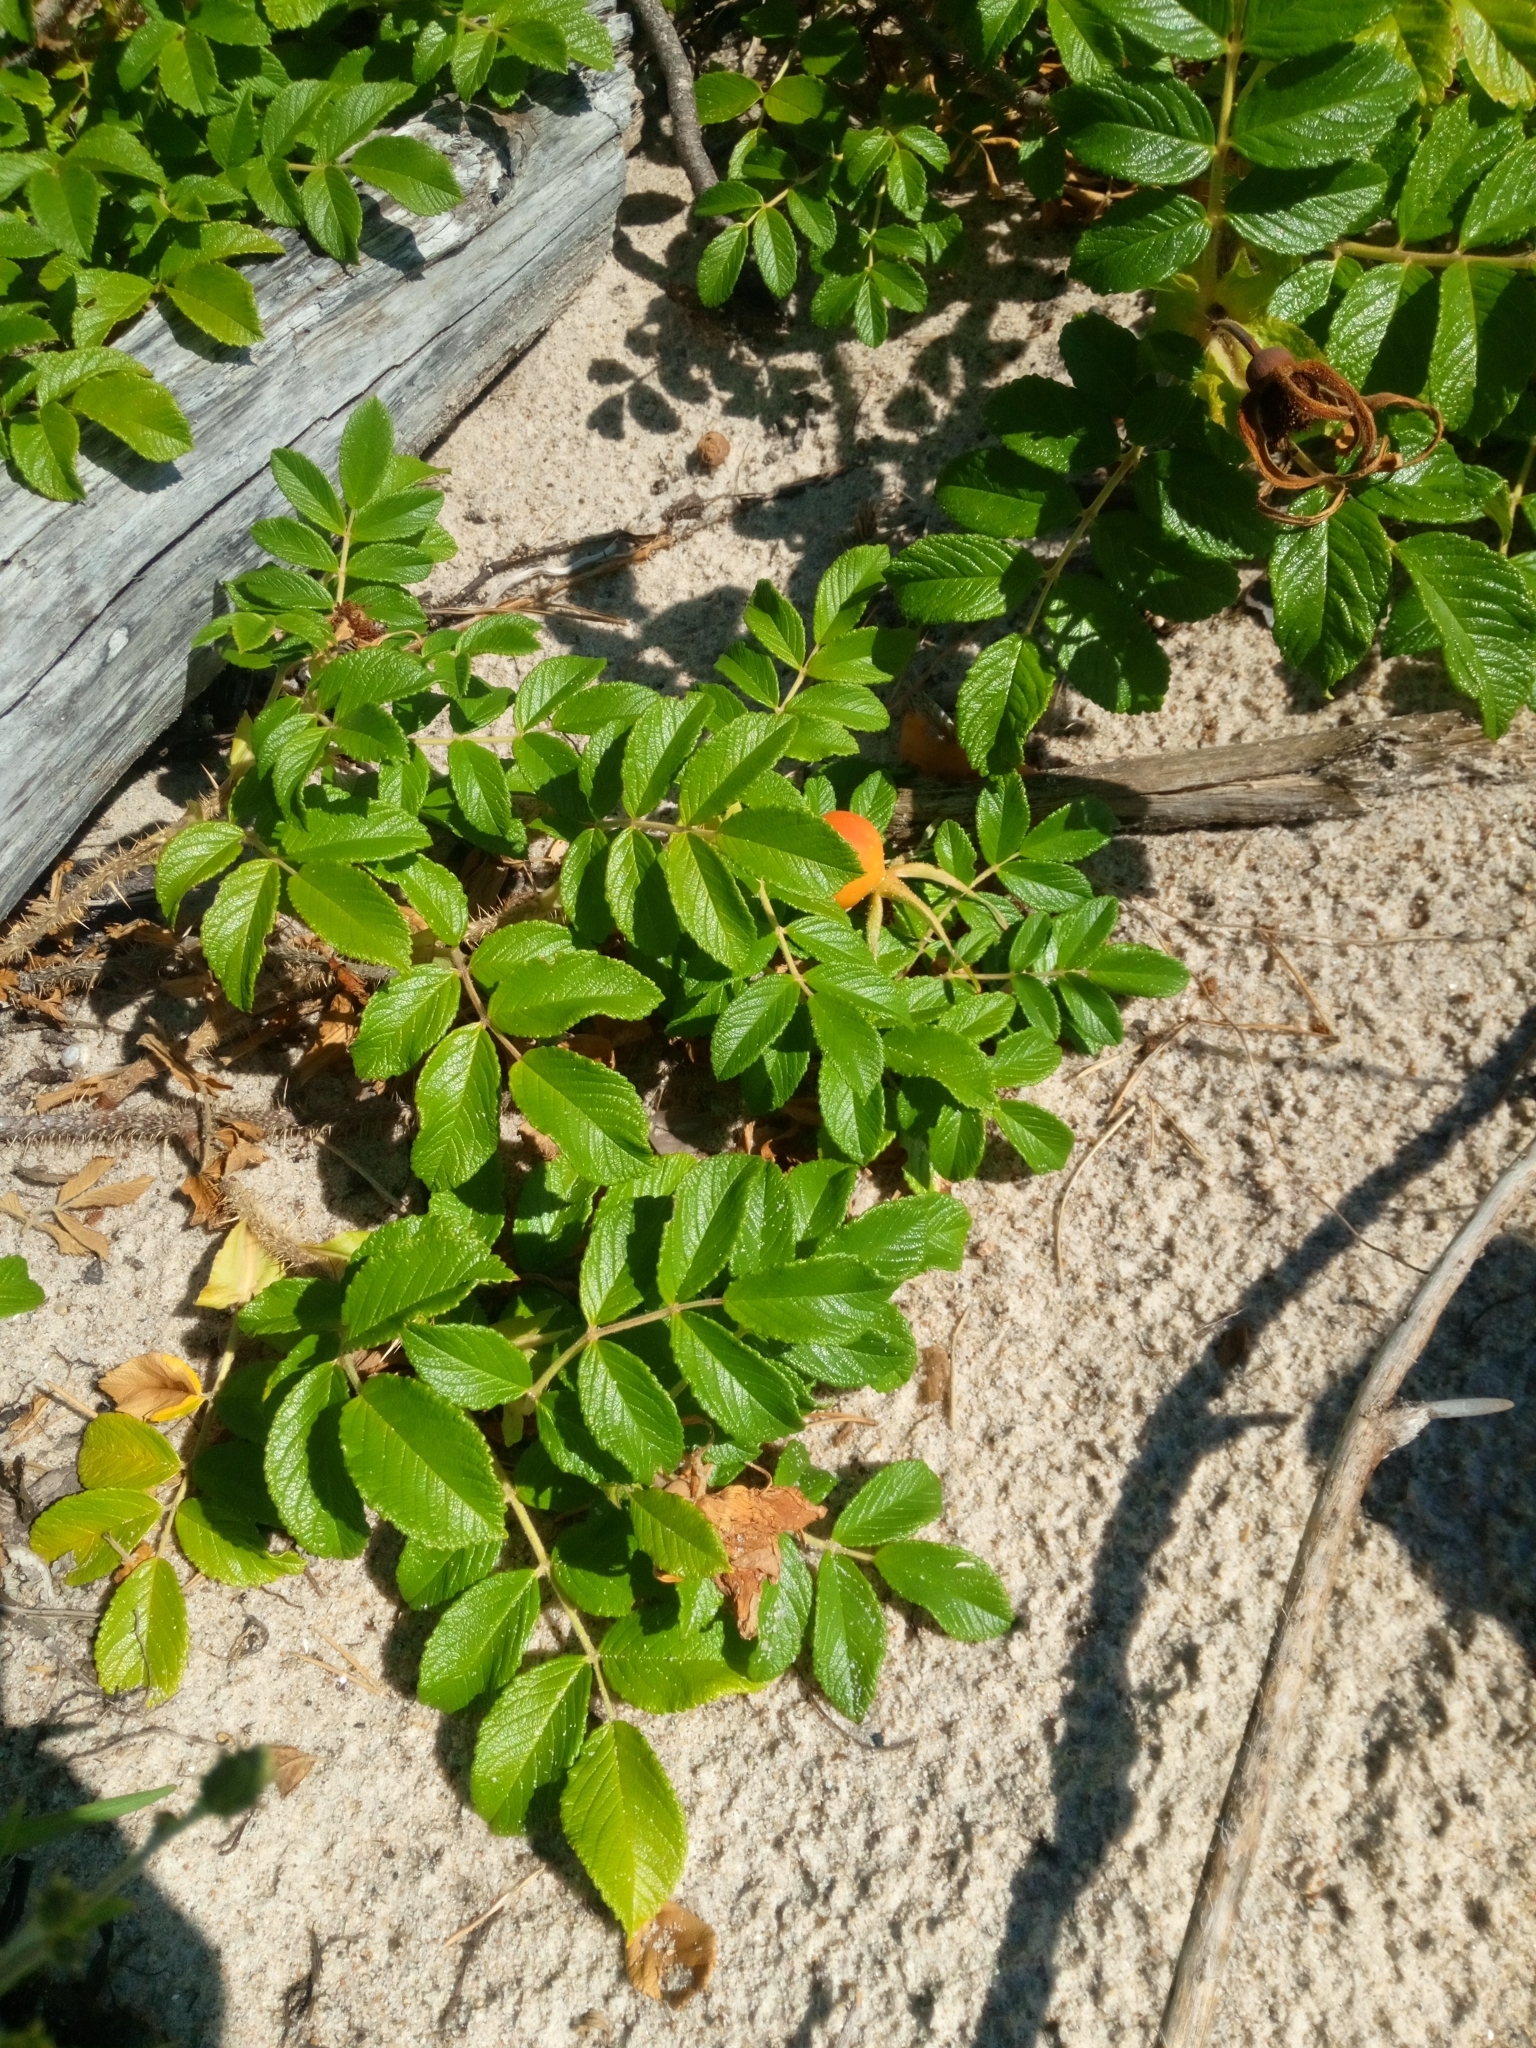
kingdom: Plantae
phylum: Tracheophyta
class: Magnoliopsida
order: Rosales
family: Rosaceae
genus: Rosa
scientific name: Rosa rugosa
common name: Japanese rose
